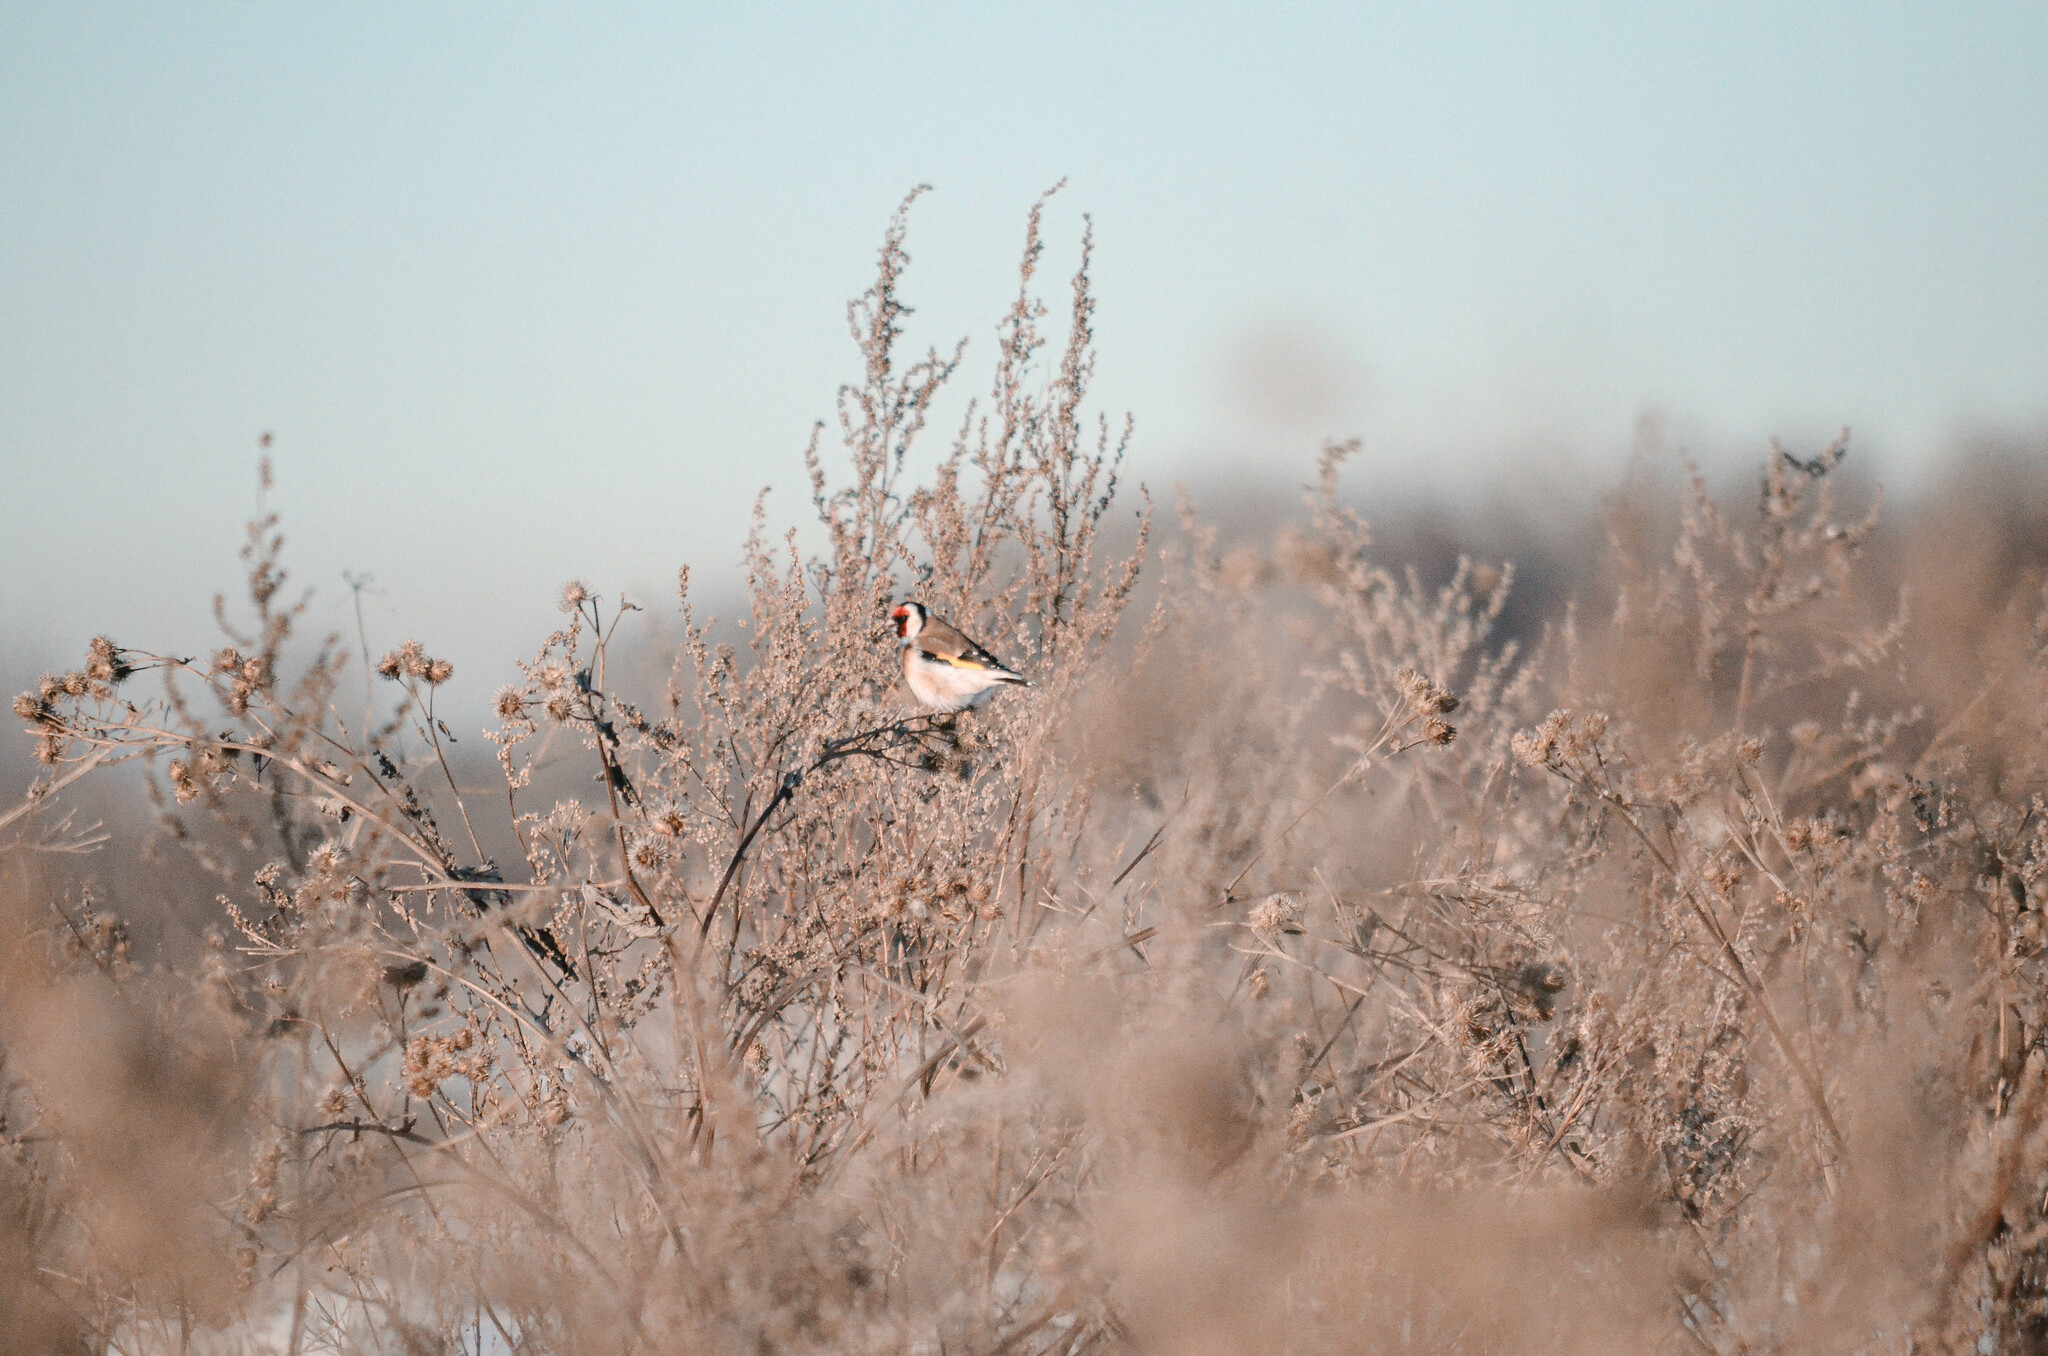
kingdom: Animalia
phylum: Chordata
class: Aves
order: Passeriformes
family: Fringillidae
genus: Carduelis
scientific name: Carduelis carduelis
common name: European goldfinch
